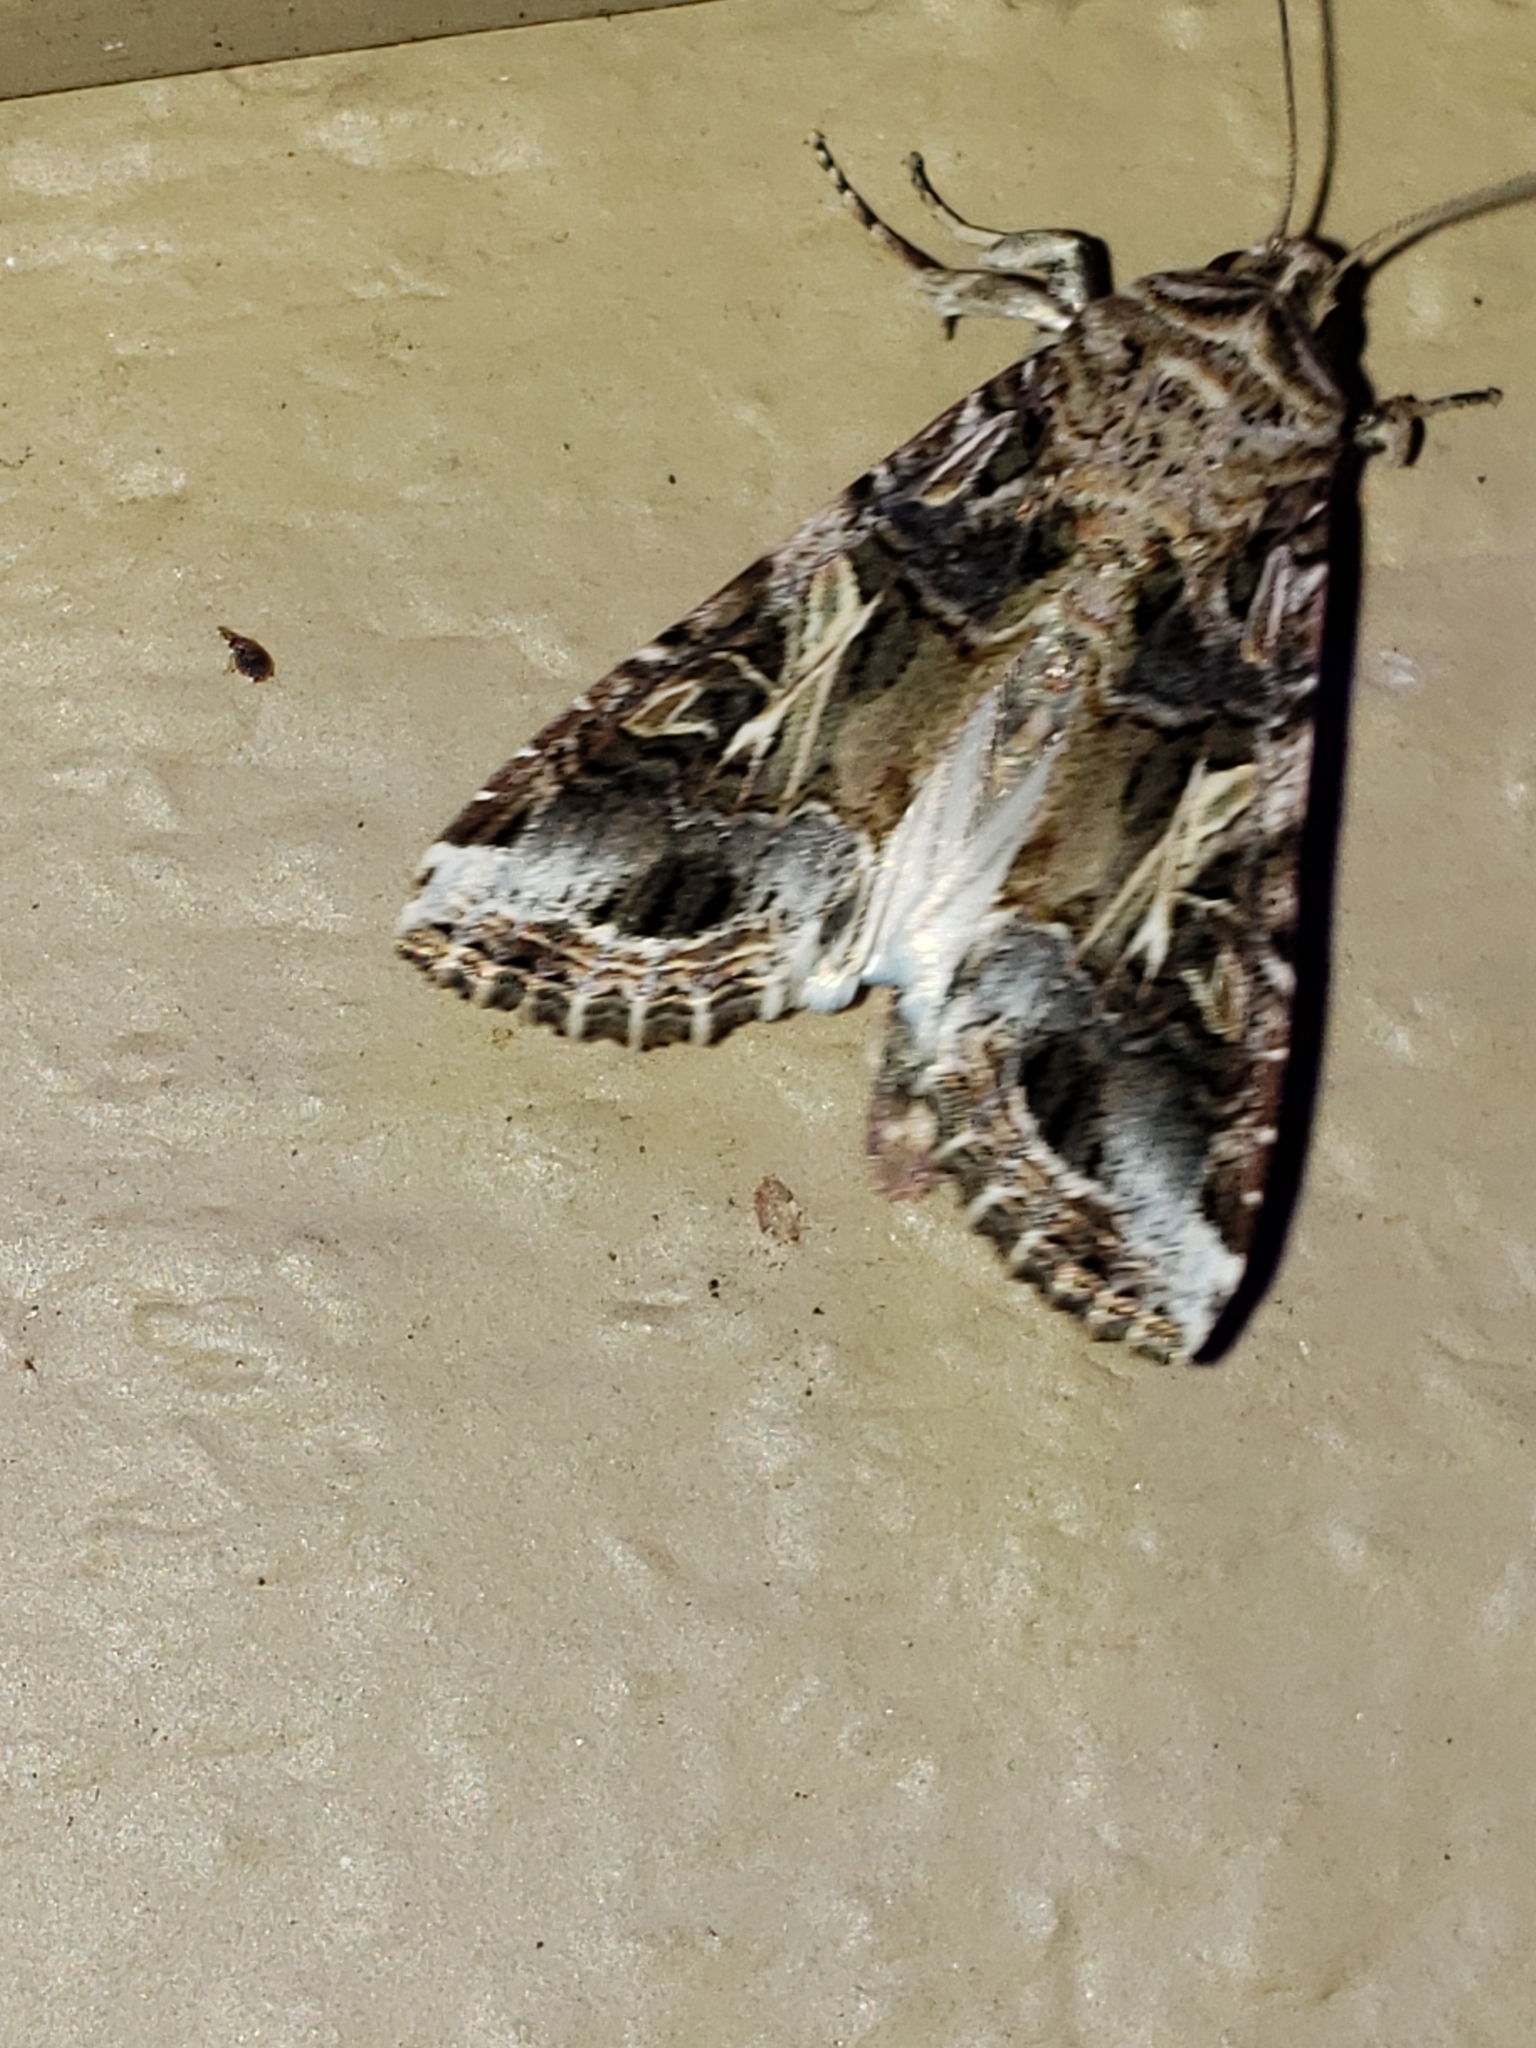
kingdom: Animalia
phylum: Arthropoda
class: Insecta
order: Lepidoptera
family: Noctuidae
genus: Spodoptera
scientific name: Spodoptera ornithogalli
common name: Yellow-striped armyworm
